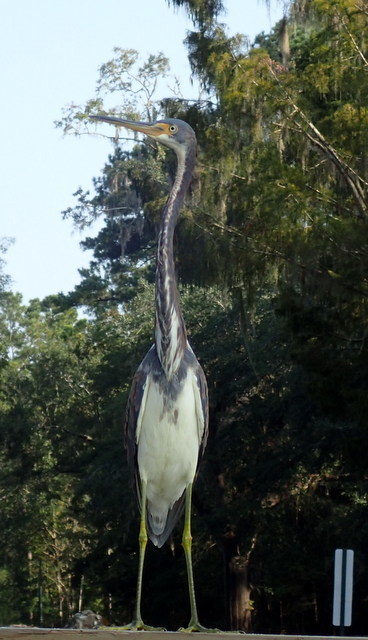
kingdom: Animalia
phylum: Chordata
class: Aves
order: Pelecaniformes
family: Ardeidae
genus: Egretta
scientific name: Egretta tricolor
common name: Tricolored heron
